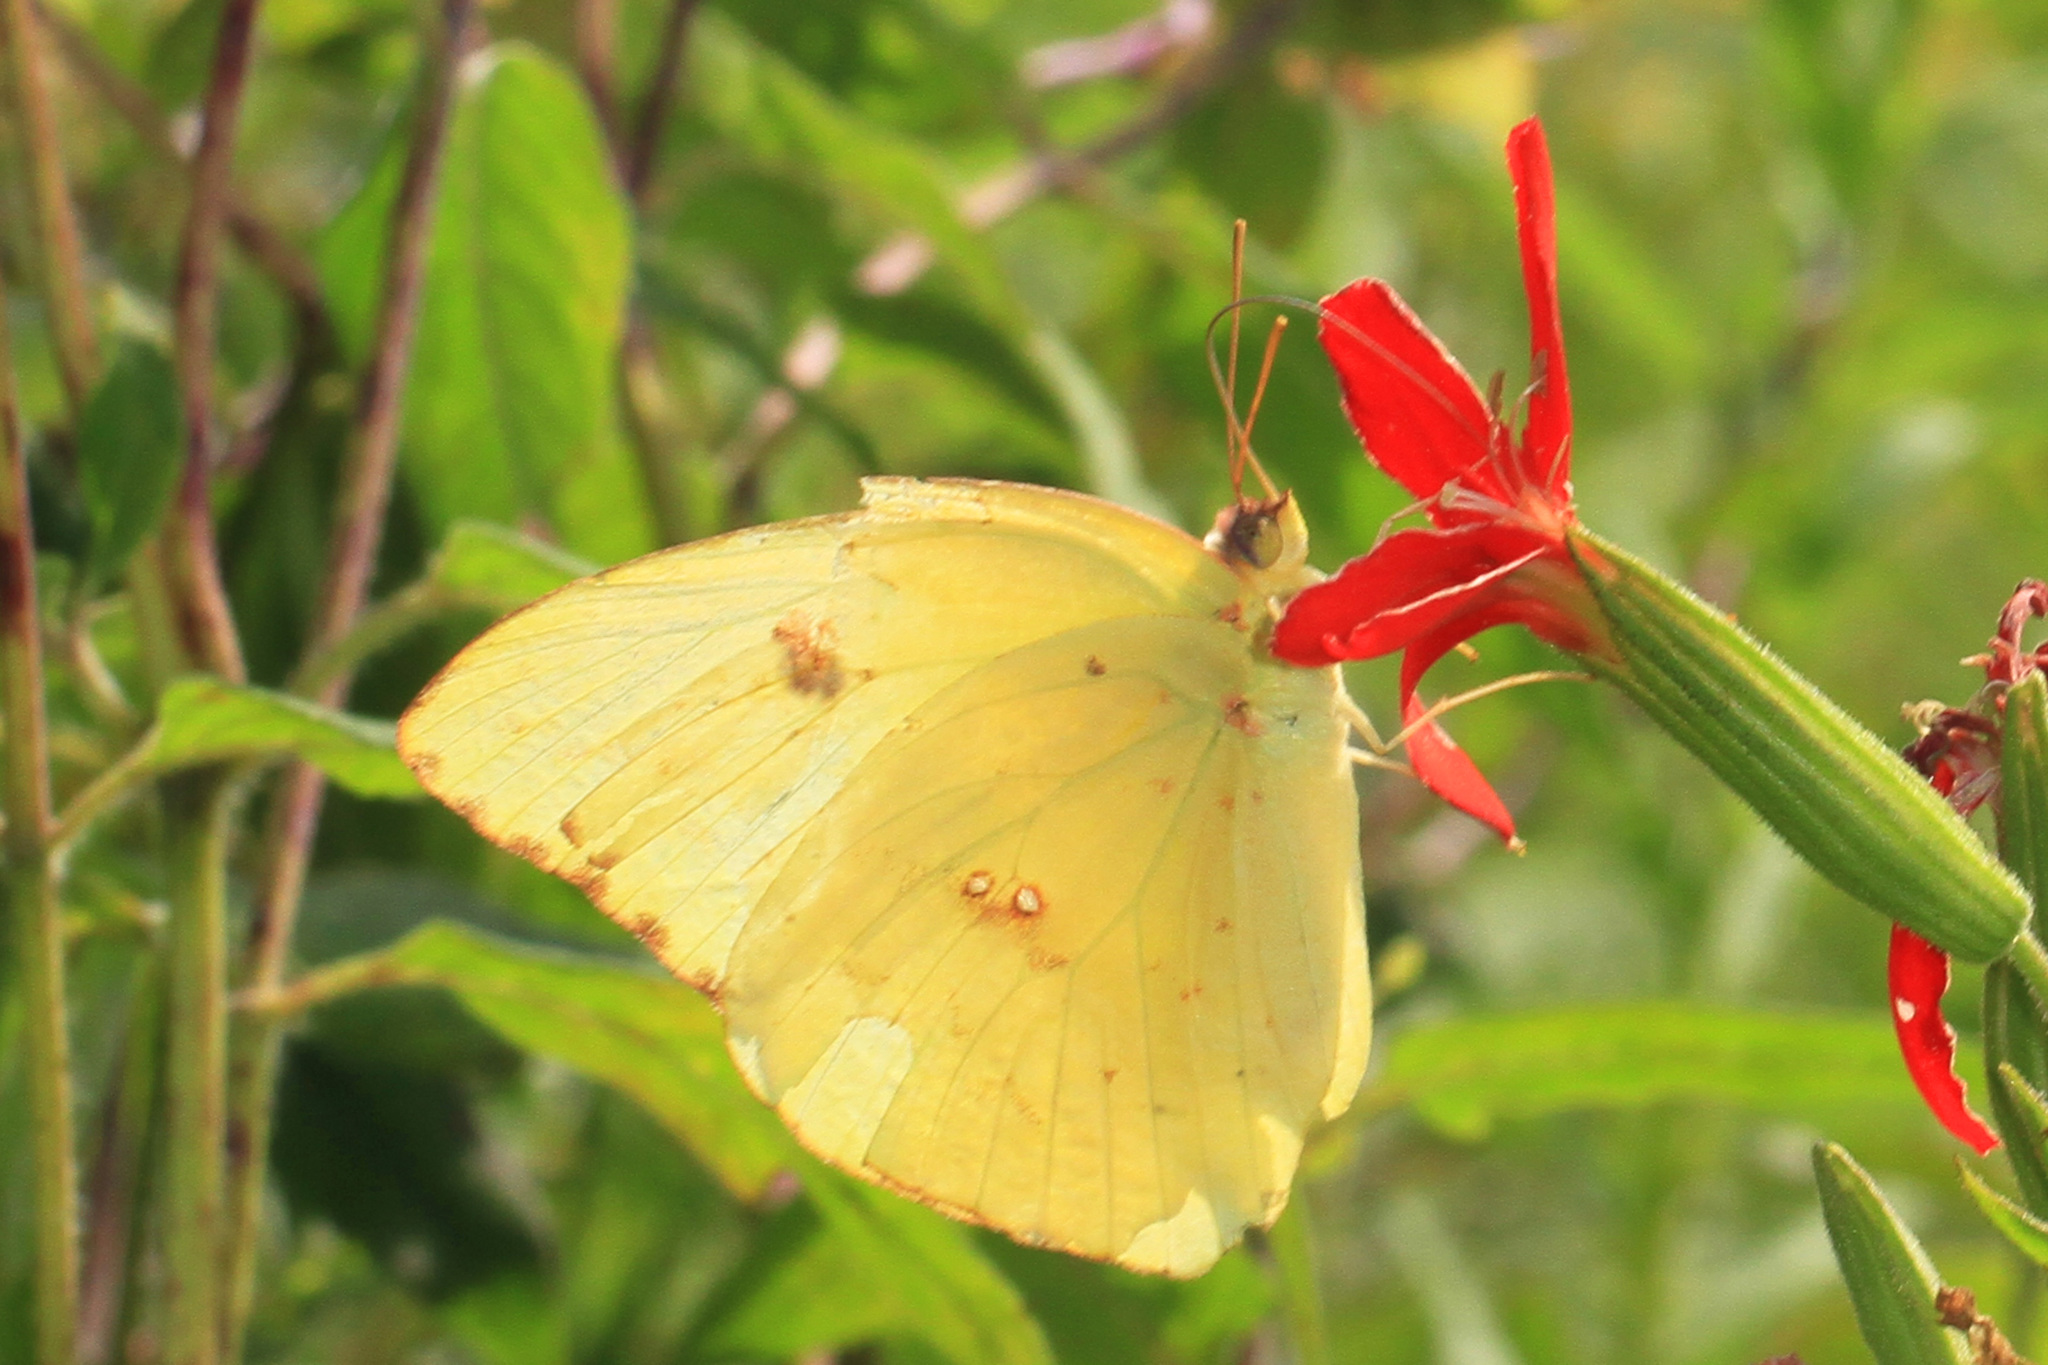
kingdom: Animalia
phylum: Arthropoda
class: Insecta
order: Lepidoptera
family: Pieridae
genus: Phoebis
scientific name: Phoebis sennae
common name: Cloudless sulphur
